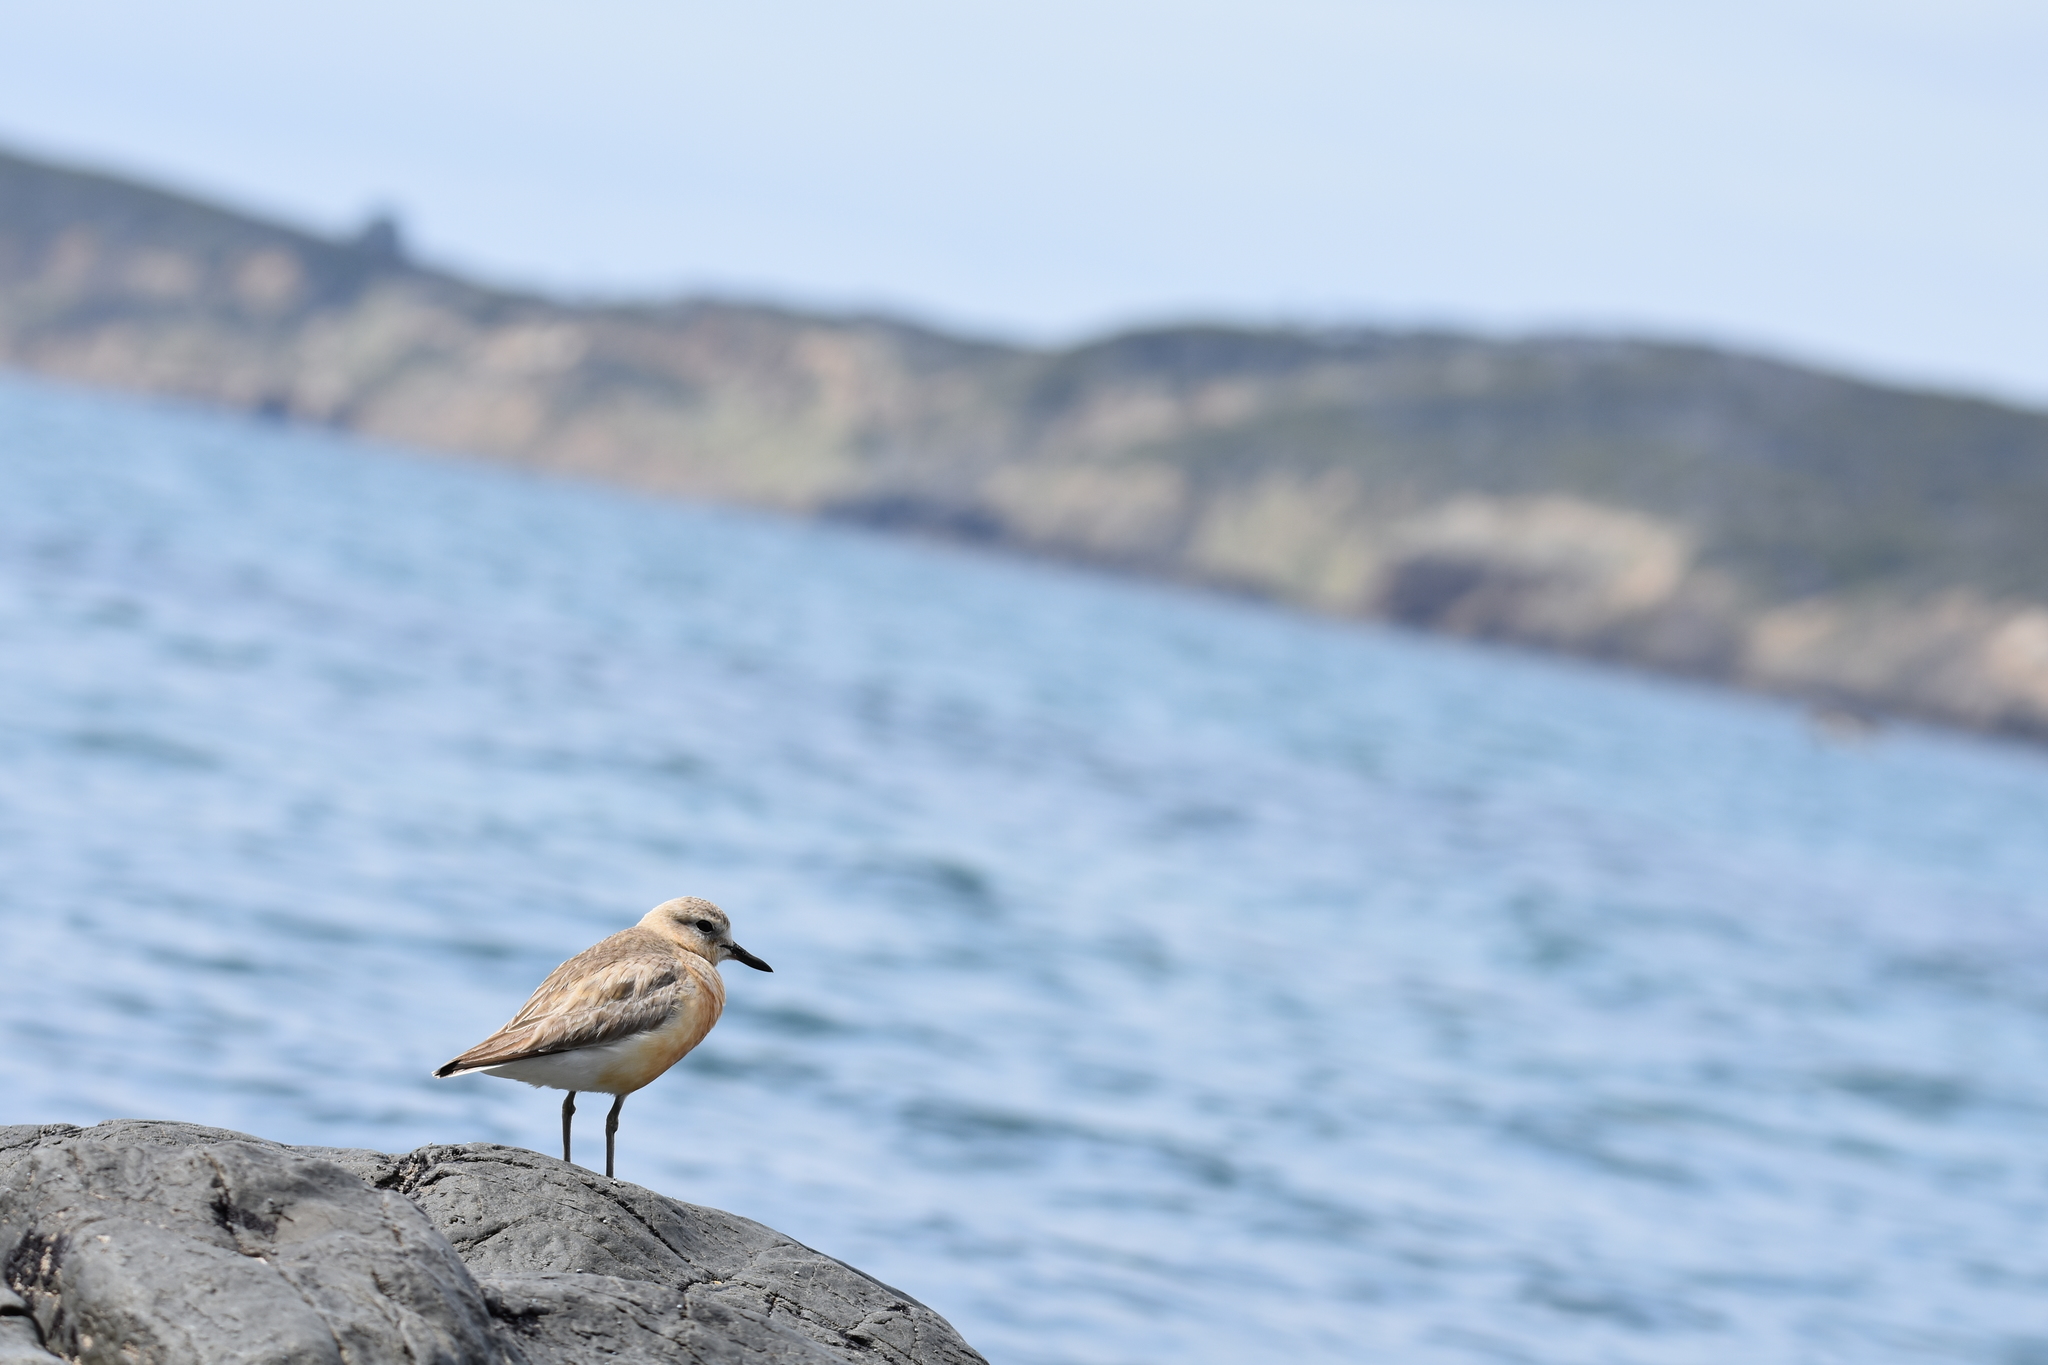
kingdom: Animalia
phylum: Chordata
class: Aves
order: Charadriiformes
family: Charadriidae
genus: Anarhynchus
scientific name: Anarhynchus
